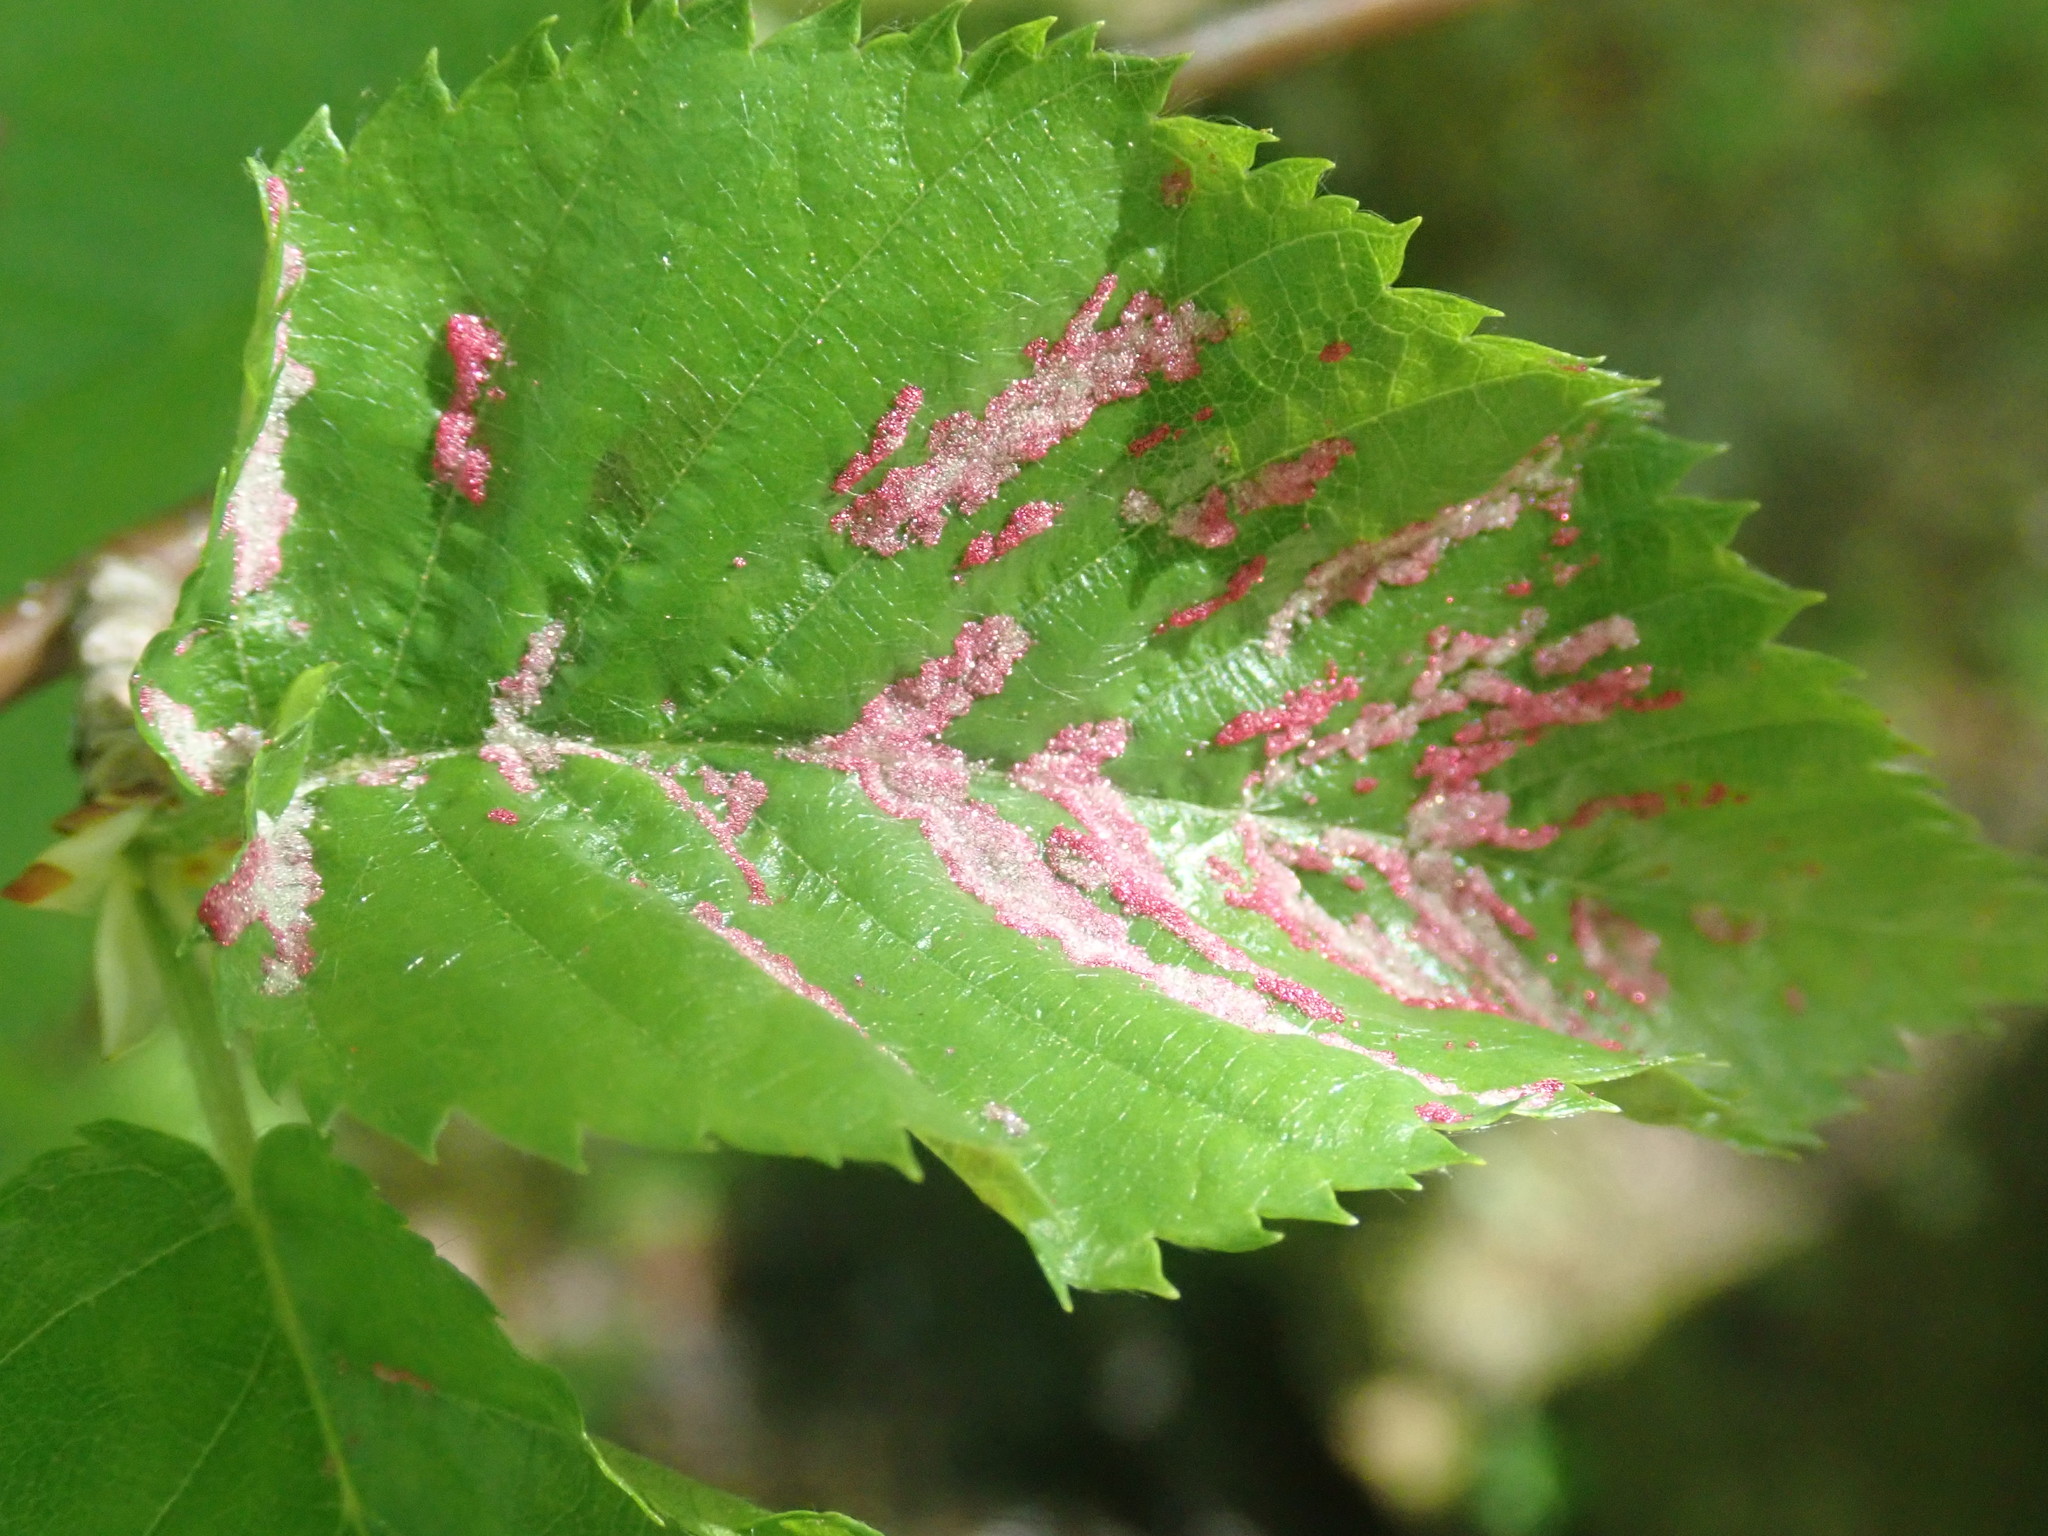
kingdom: Animalia
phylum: Arthropoda
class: Arachnida
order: Trombidiformes
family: Eriophyidae
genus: Acalitus
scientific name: Acalitus longisetosus
